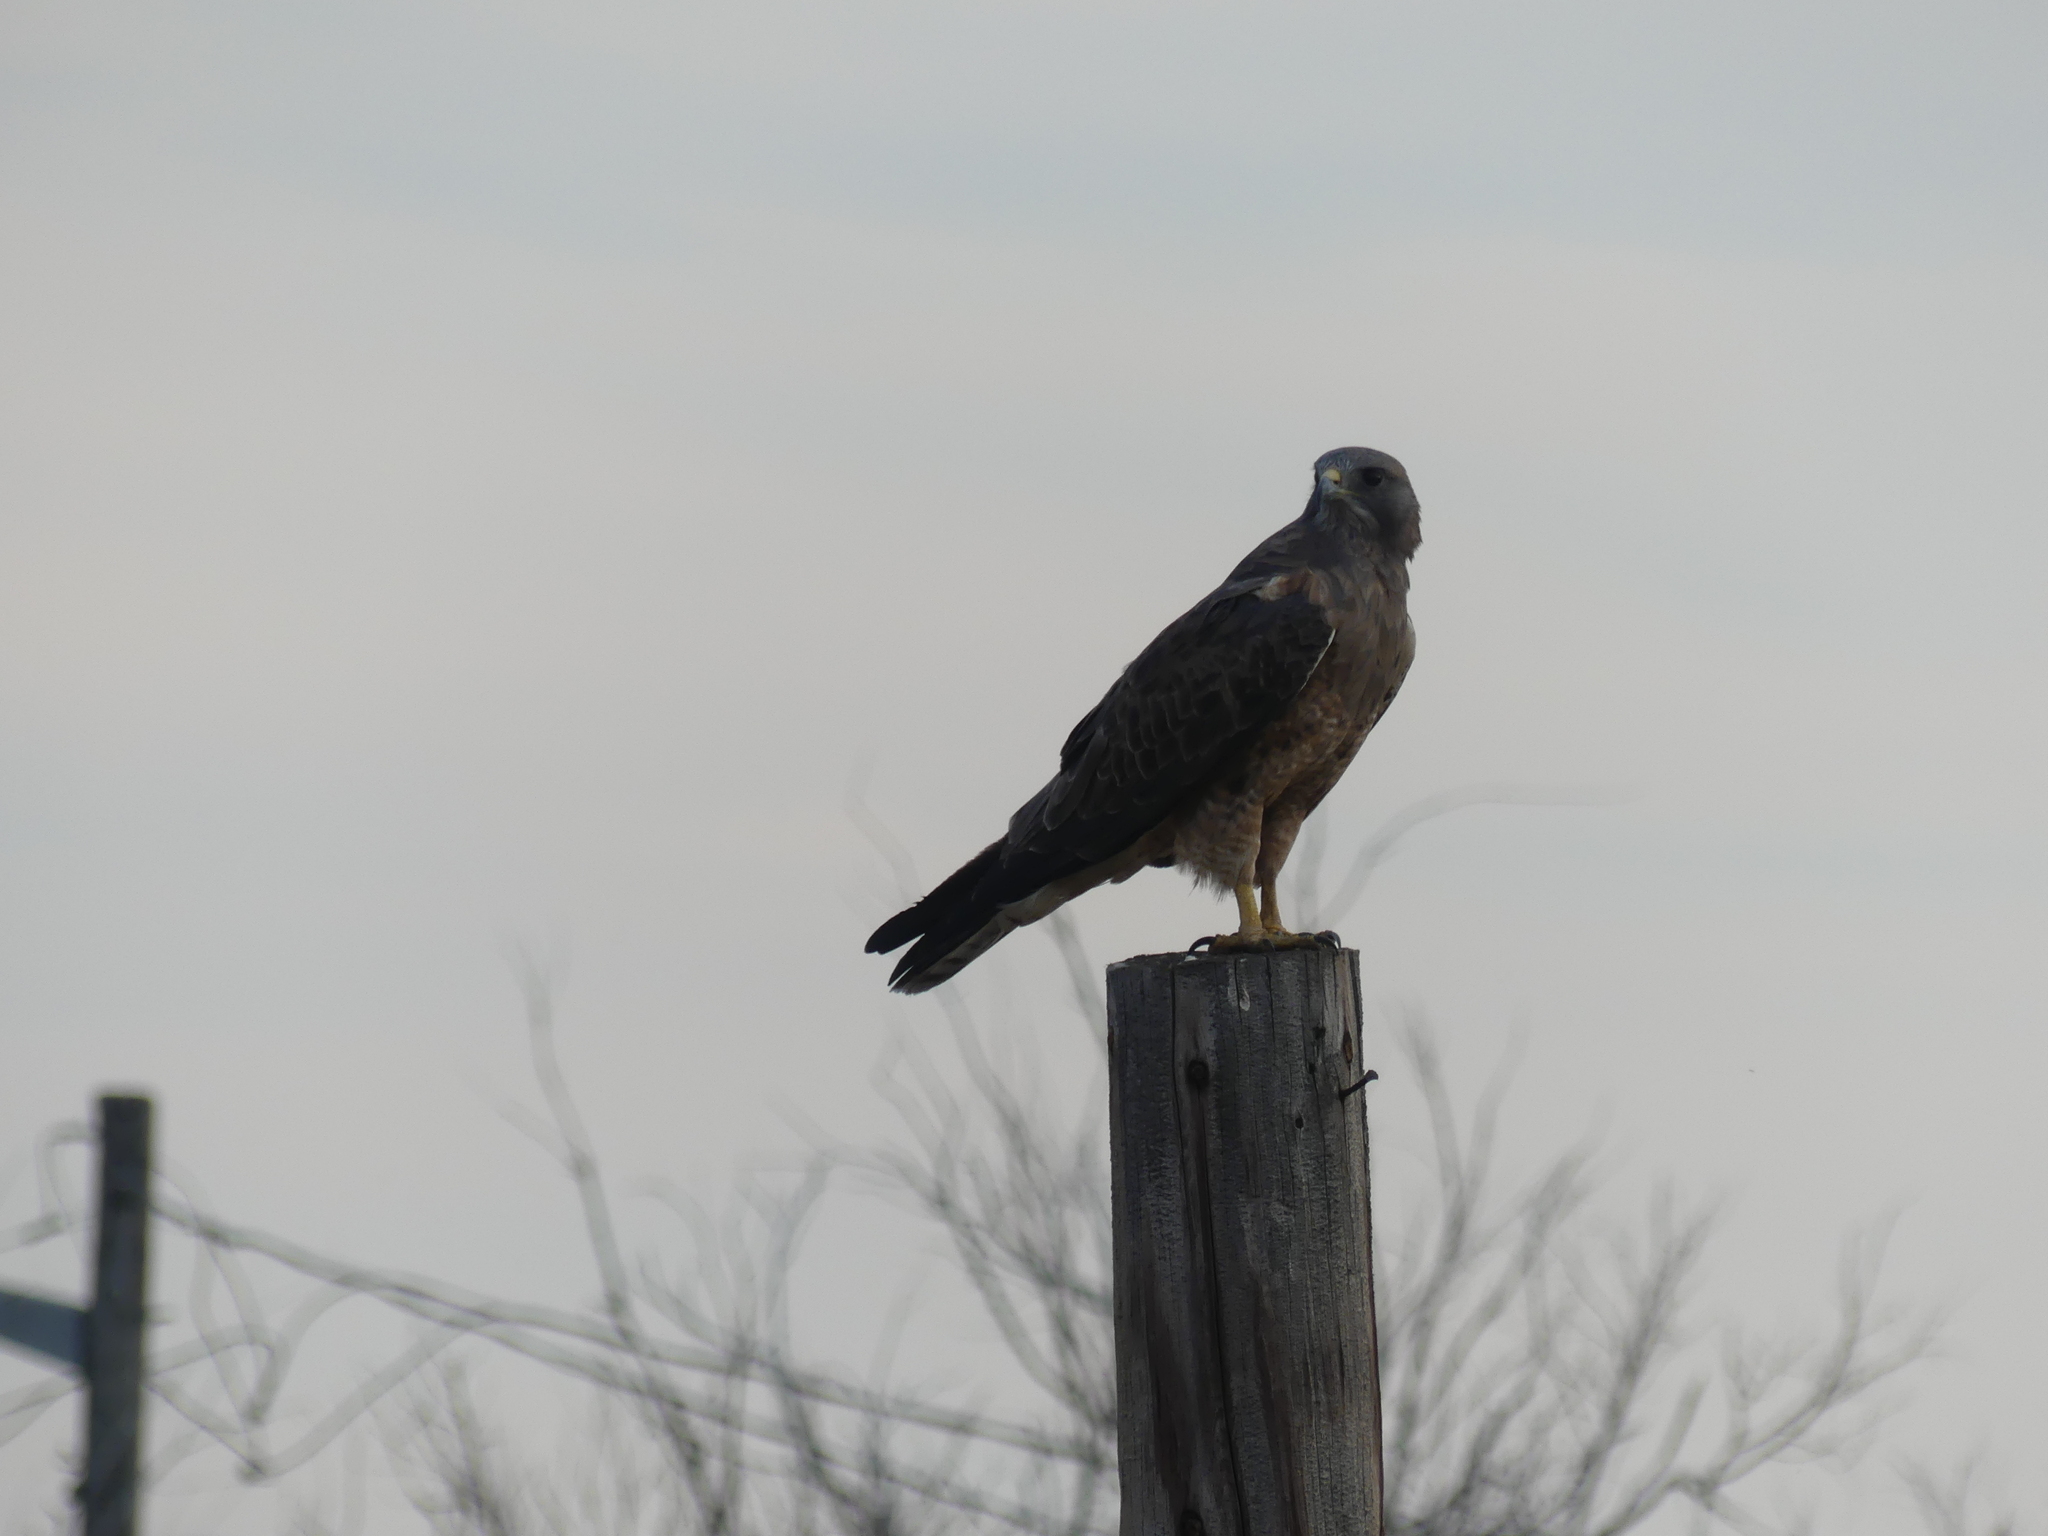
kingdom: Animalia
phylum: Chordata
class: Aves
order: Accipitriformes
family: Accipitridae
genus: Buteo
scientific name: Buteo swainsoni
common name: Swainson's hawk
